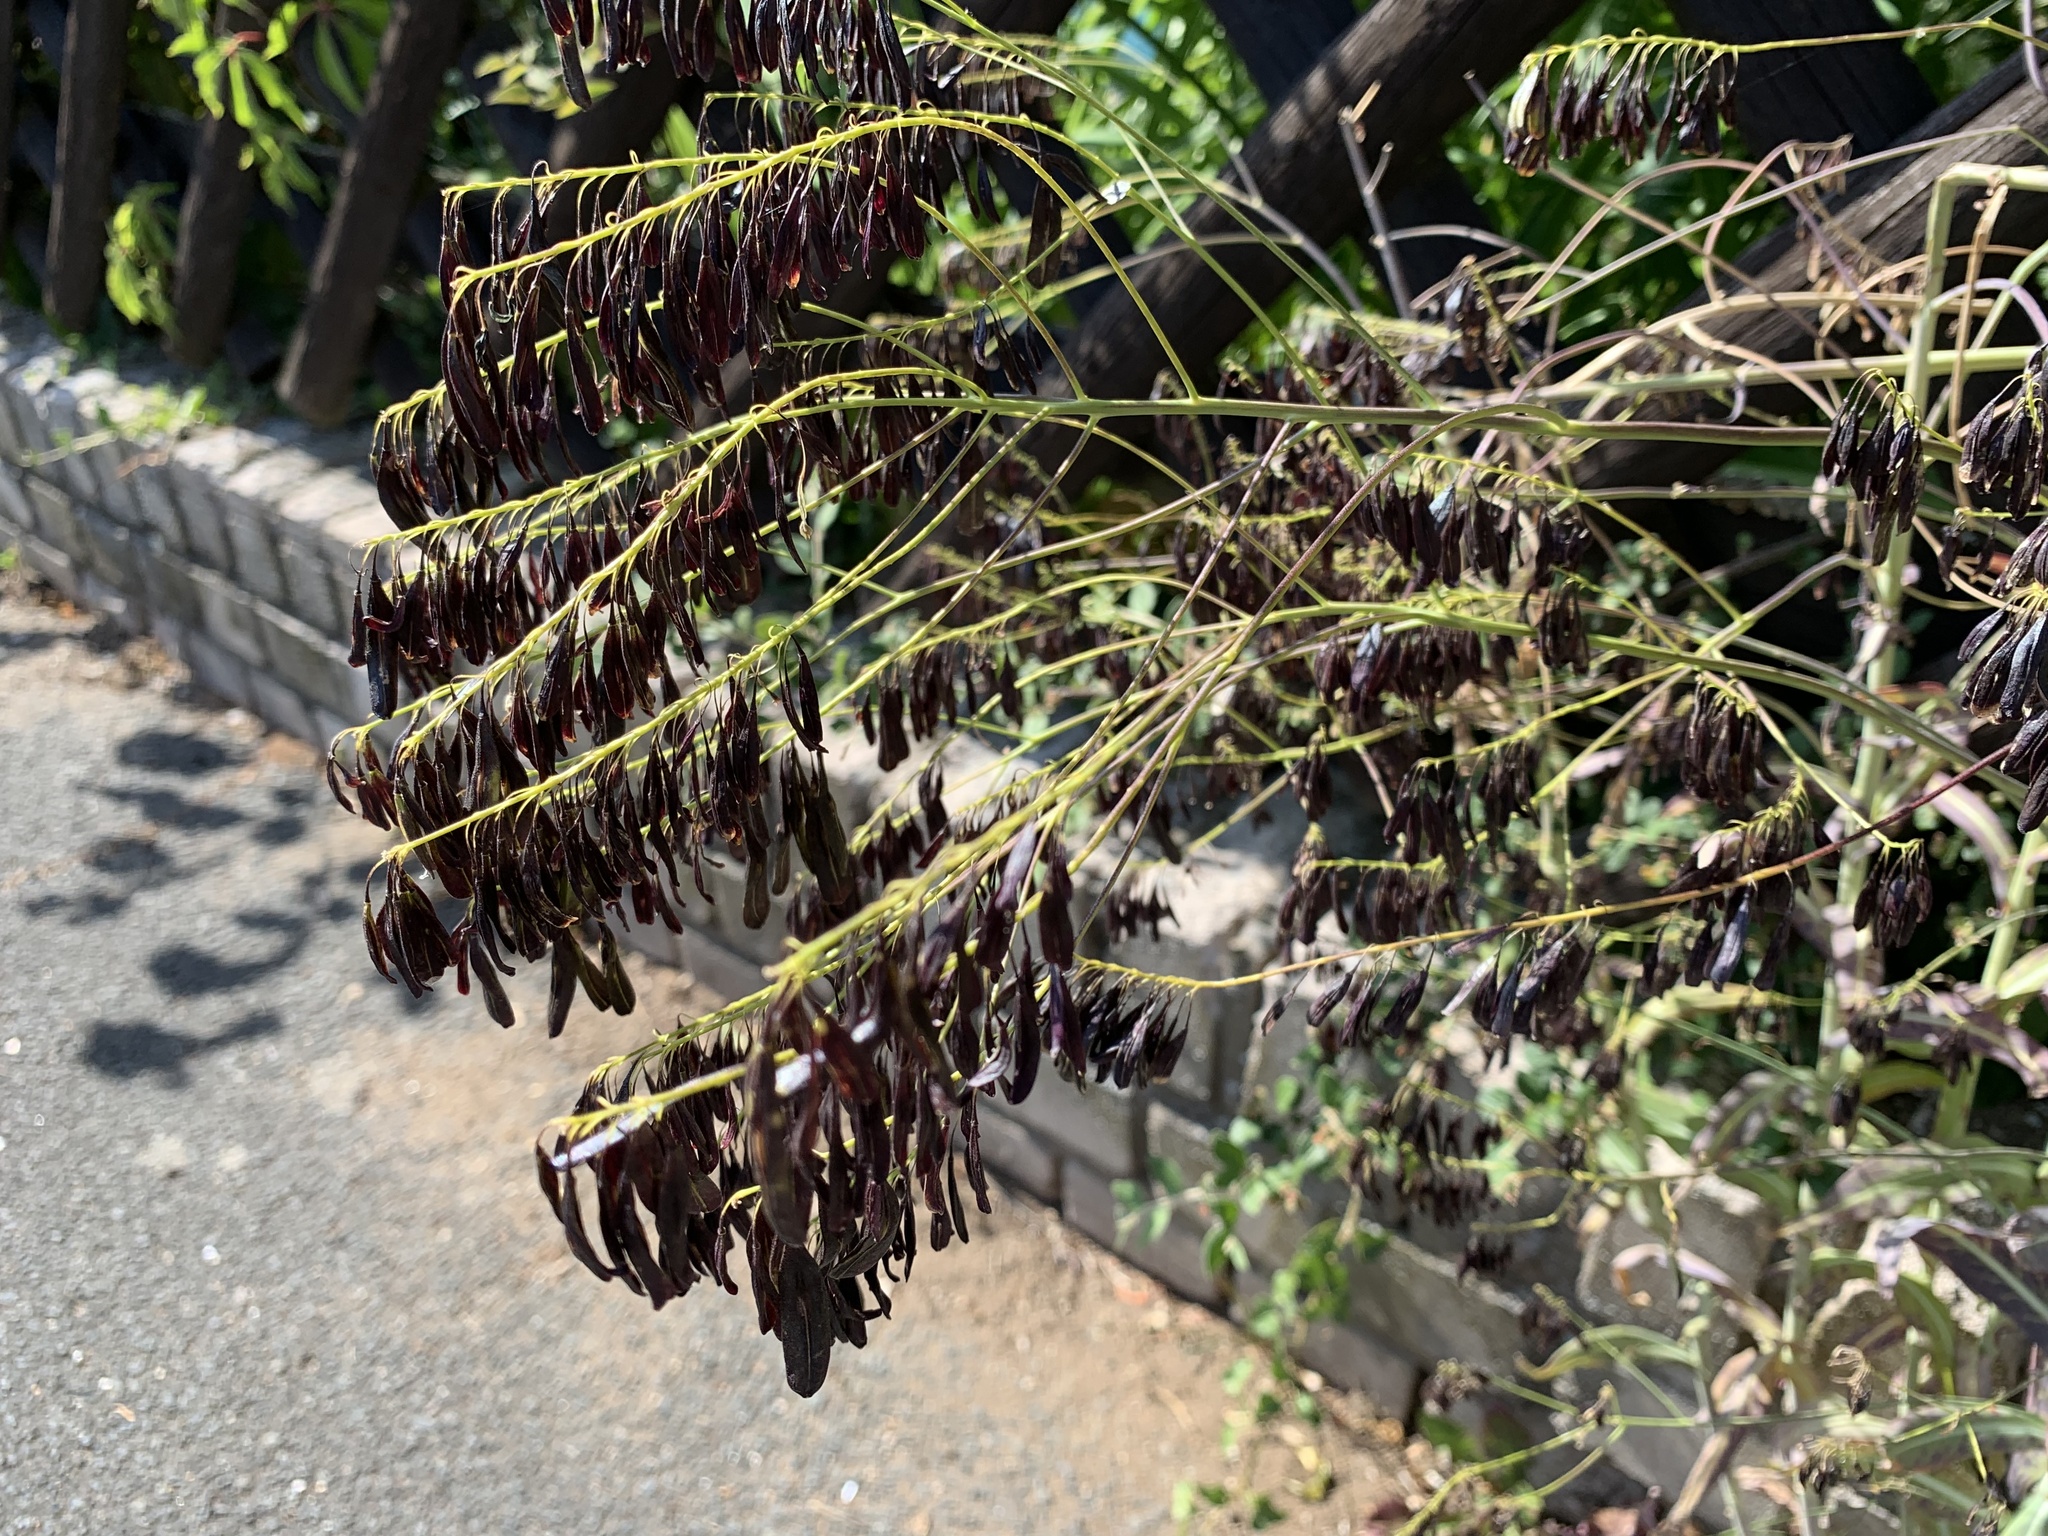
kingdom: Plantae
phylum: Tracheophyta
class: Magnoliopsida
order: Brassicales
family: Brassicaceae
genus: Isatis
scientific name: Isatis tinctoria
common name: Woad
